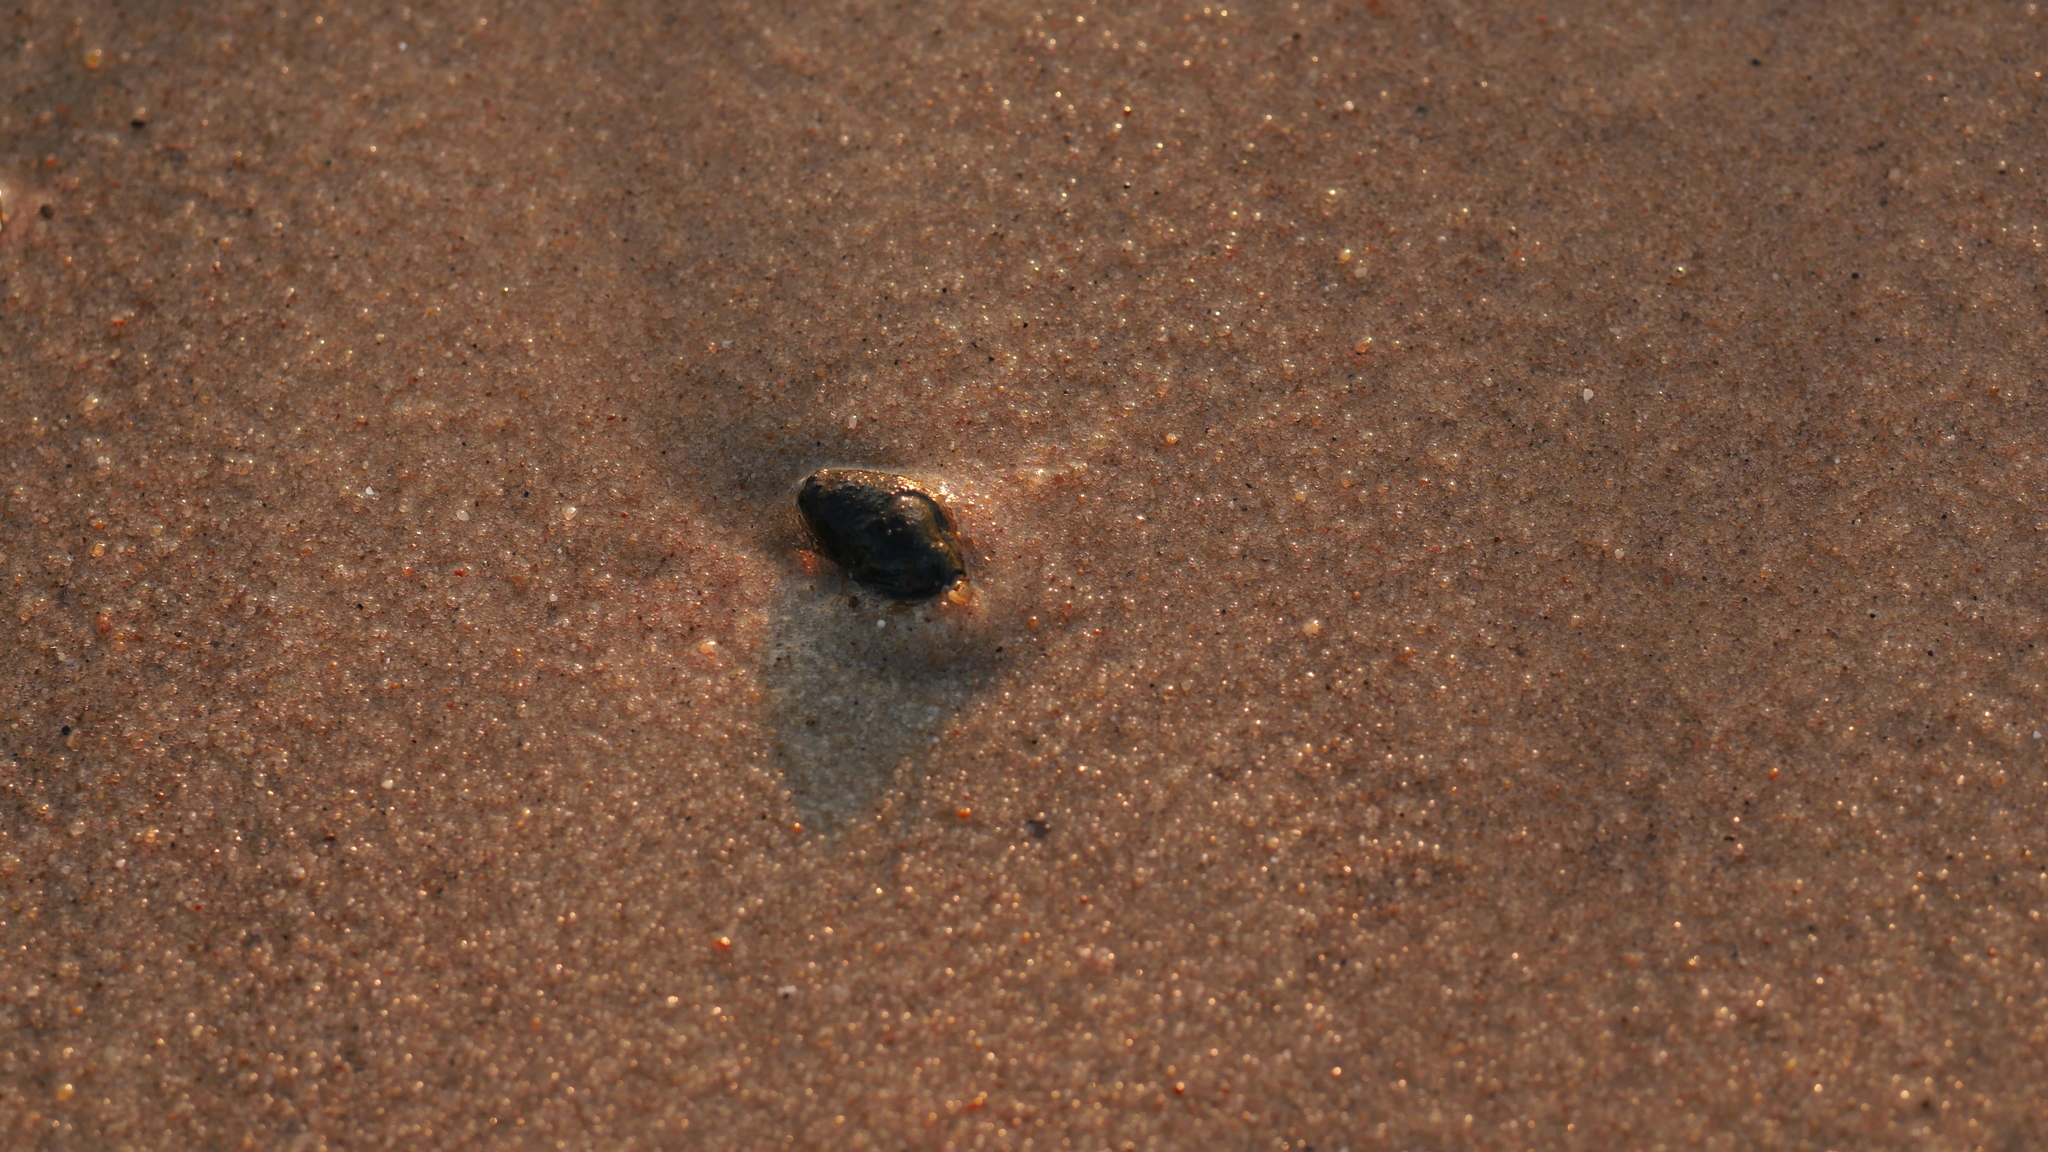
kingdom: Animalia
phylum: Mollusca
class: Gastropoda
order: Neogastropoda
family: Nassariidae
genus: Ilyanassa
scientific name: Ilyanassa obsoleta
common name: Eastern mudsnail
